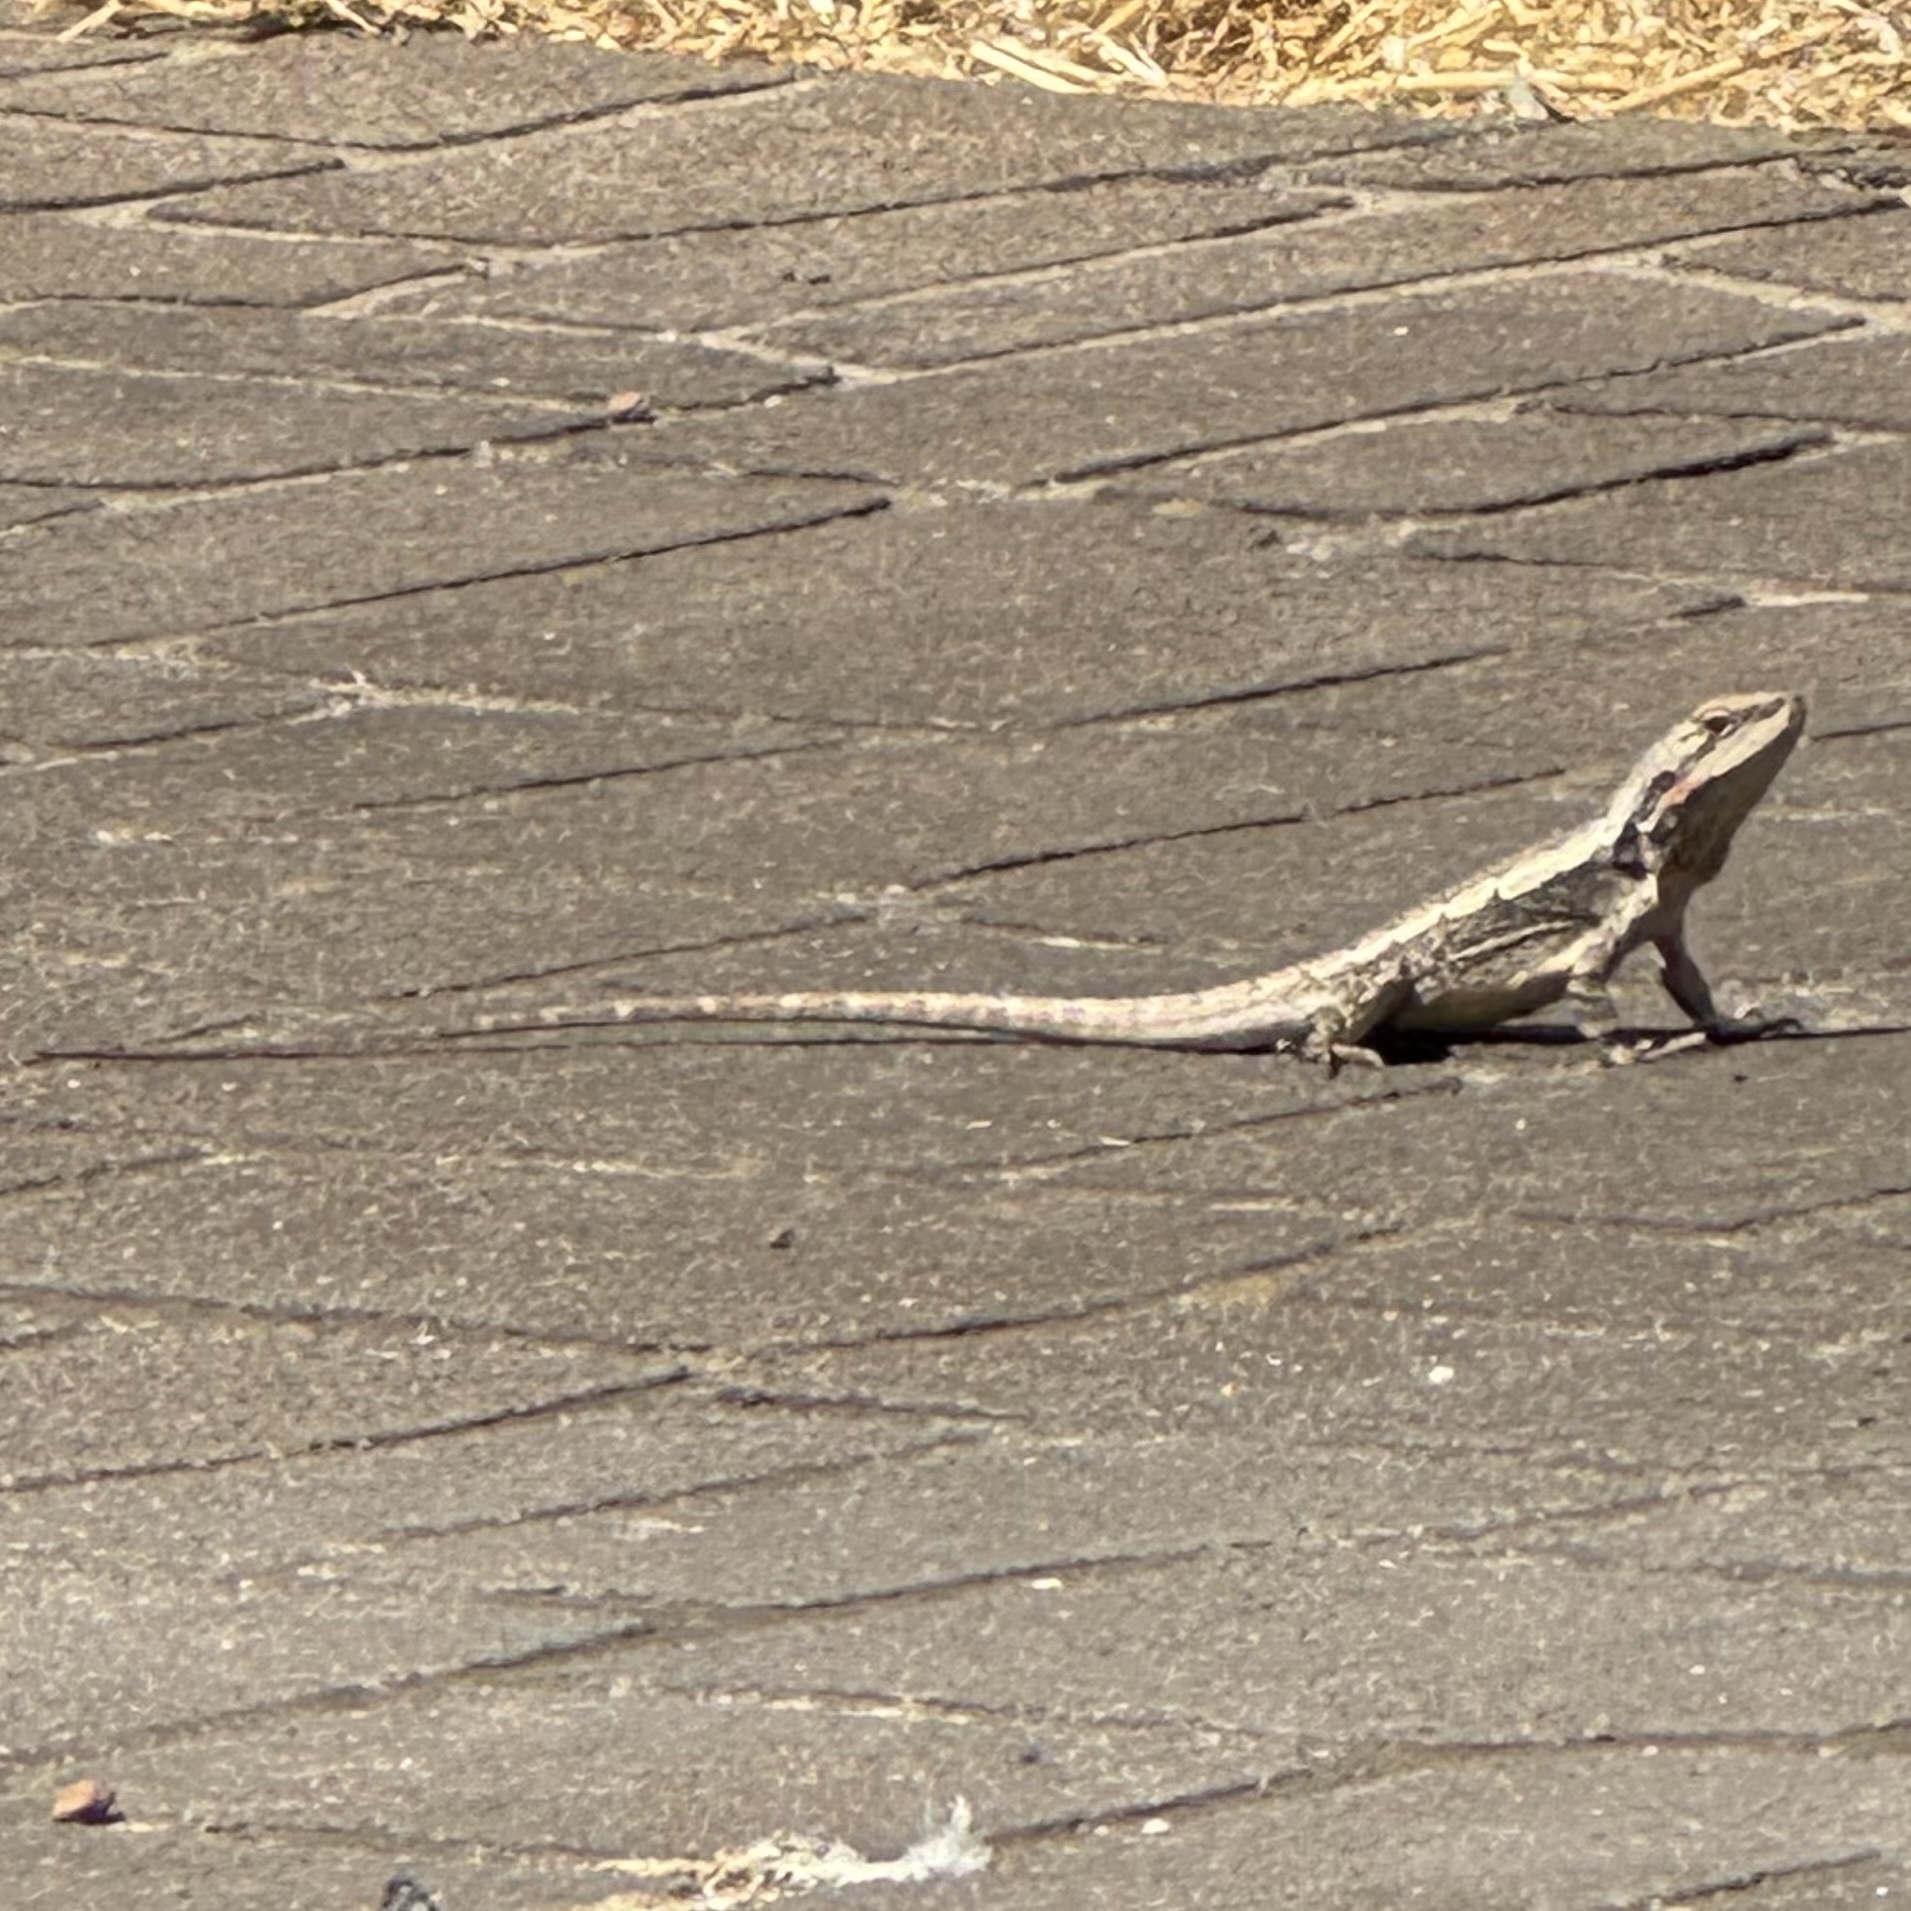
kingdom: Animalia
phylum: Chordata
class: Squamata
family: Agamidae
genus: Amphibolurus
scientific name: Amphibolurus muricatus
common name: Jacky lizard
